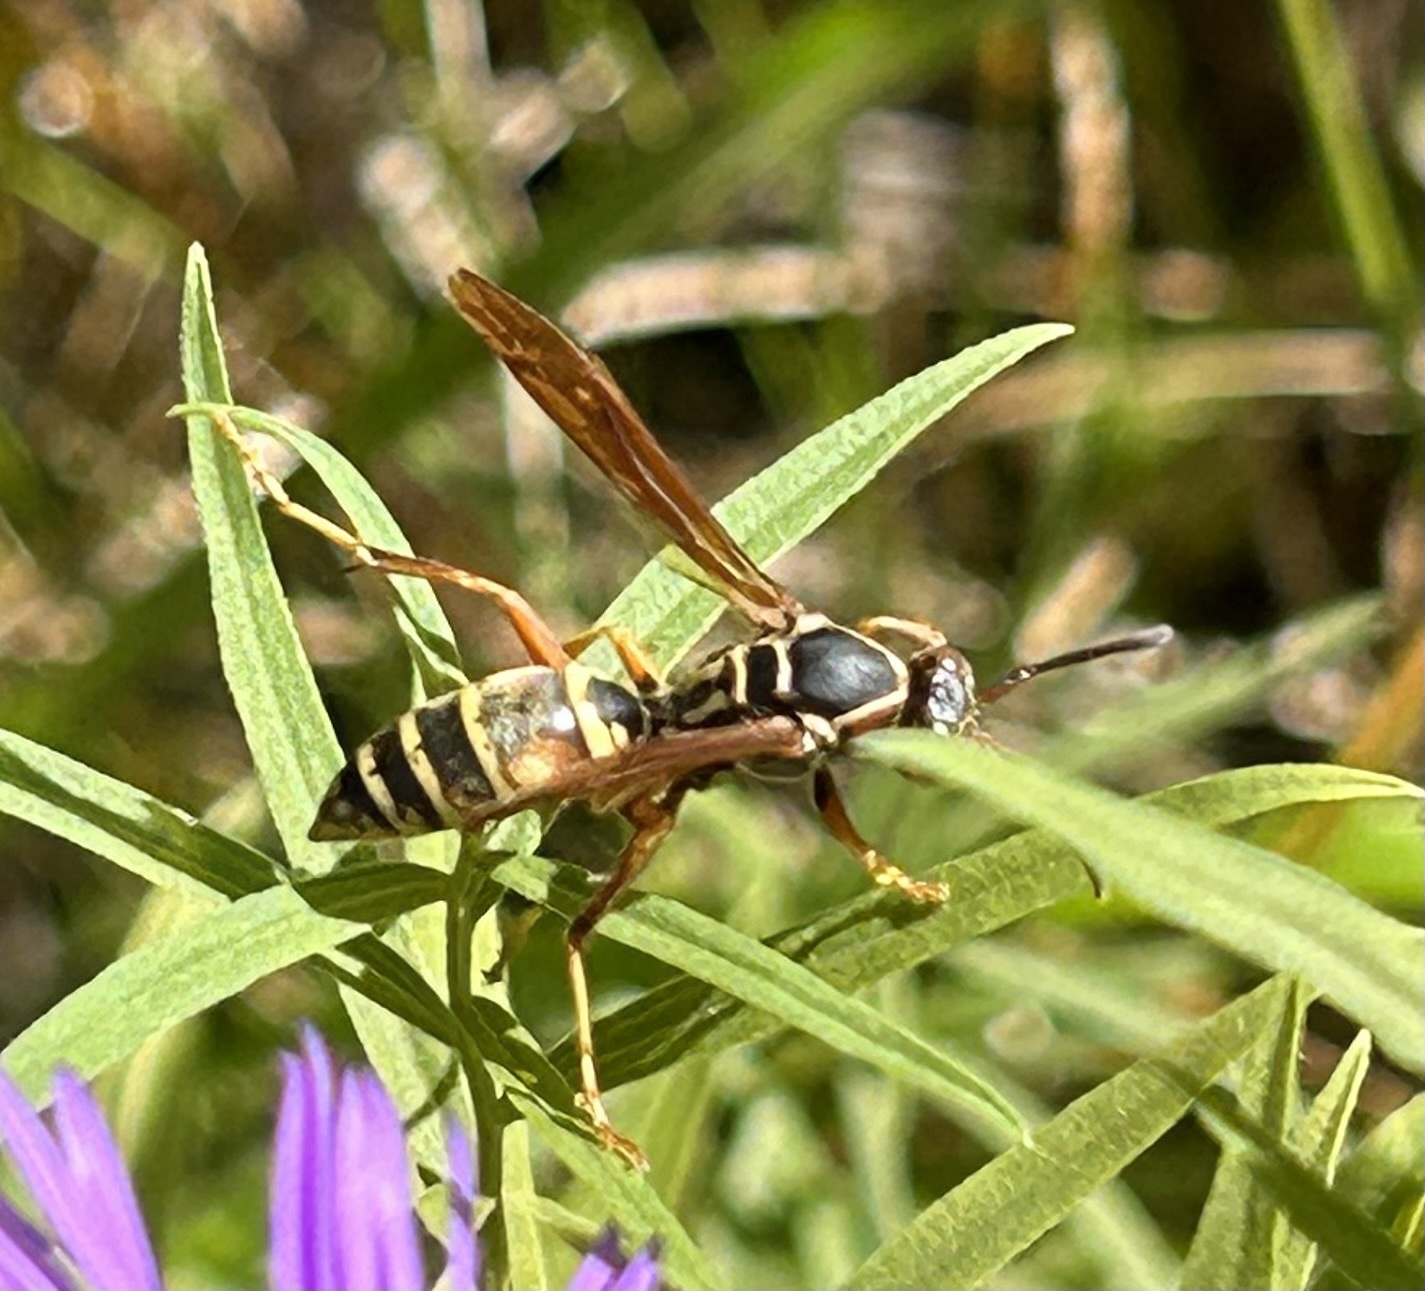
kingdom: Animalia
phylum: Arthropoda
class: Insecta
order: Hymenoptera
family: Eumenidae
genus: Polistes
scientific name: Polistes fuscatus
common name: Dark paper wasp
